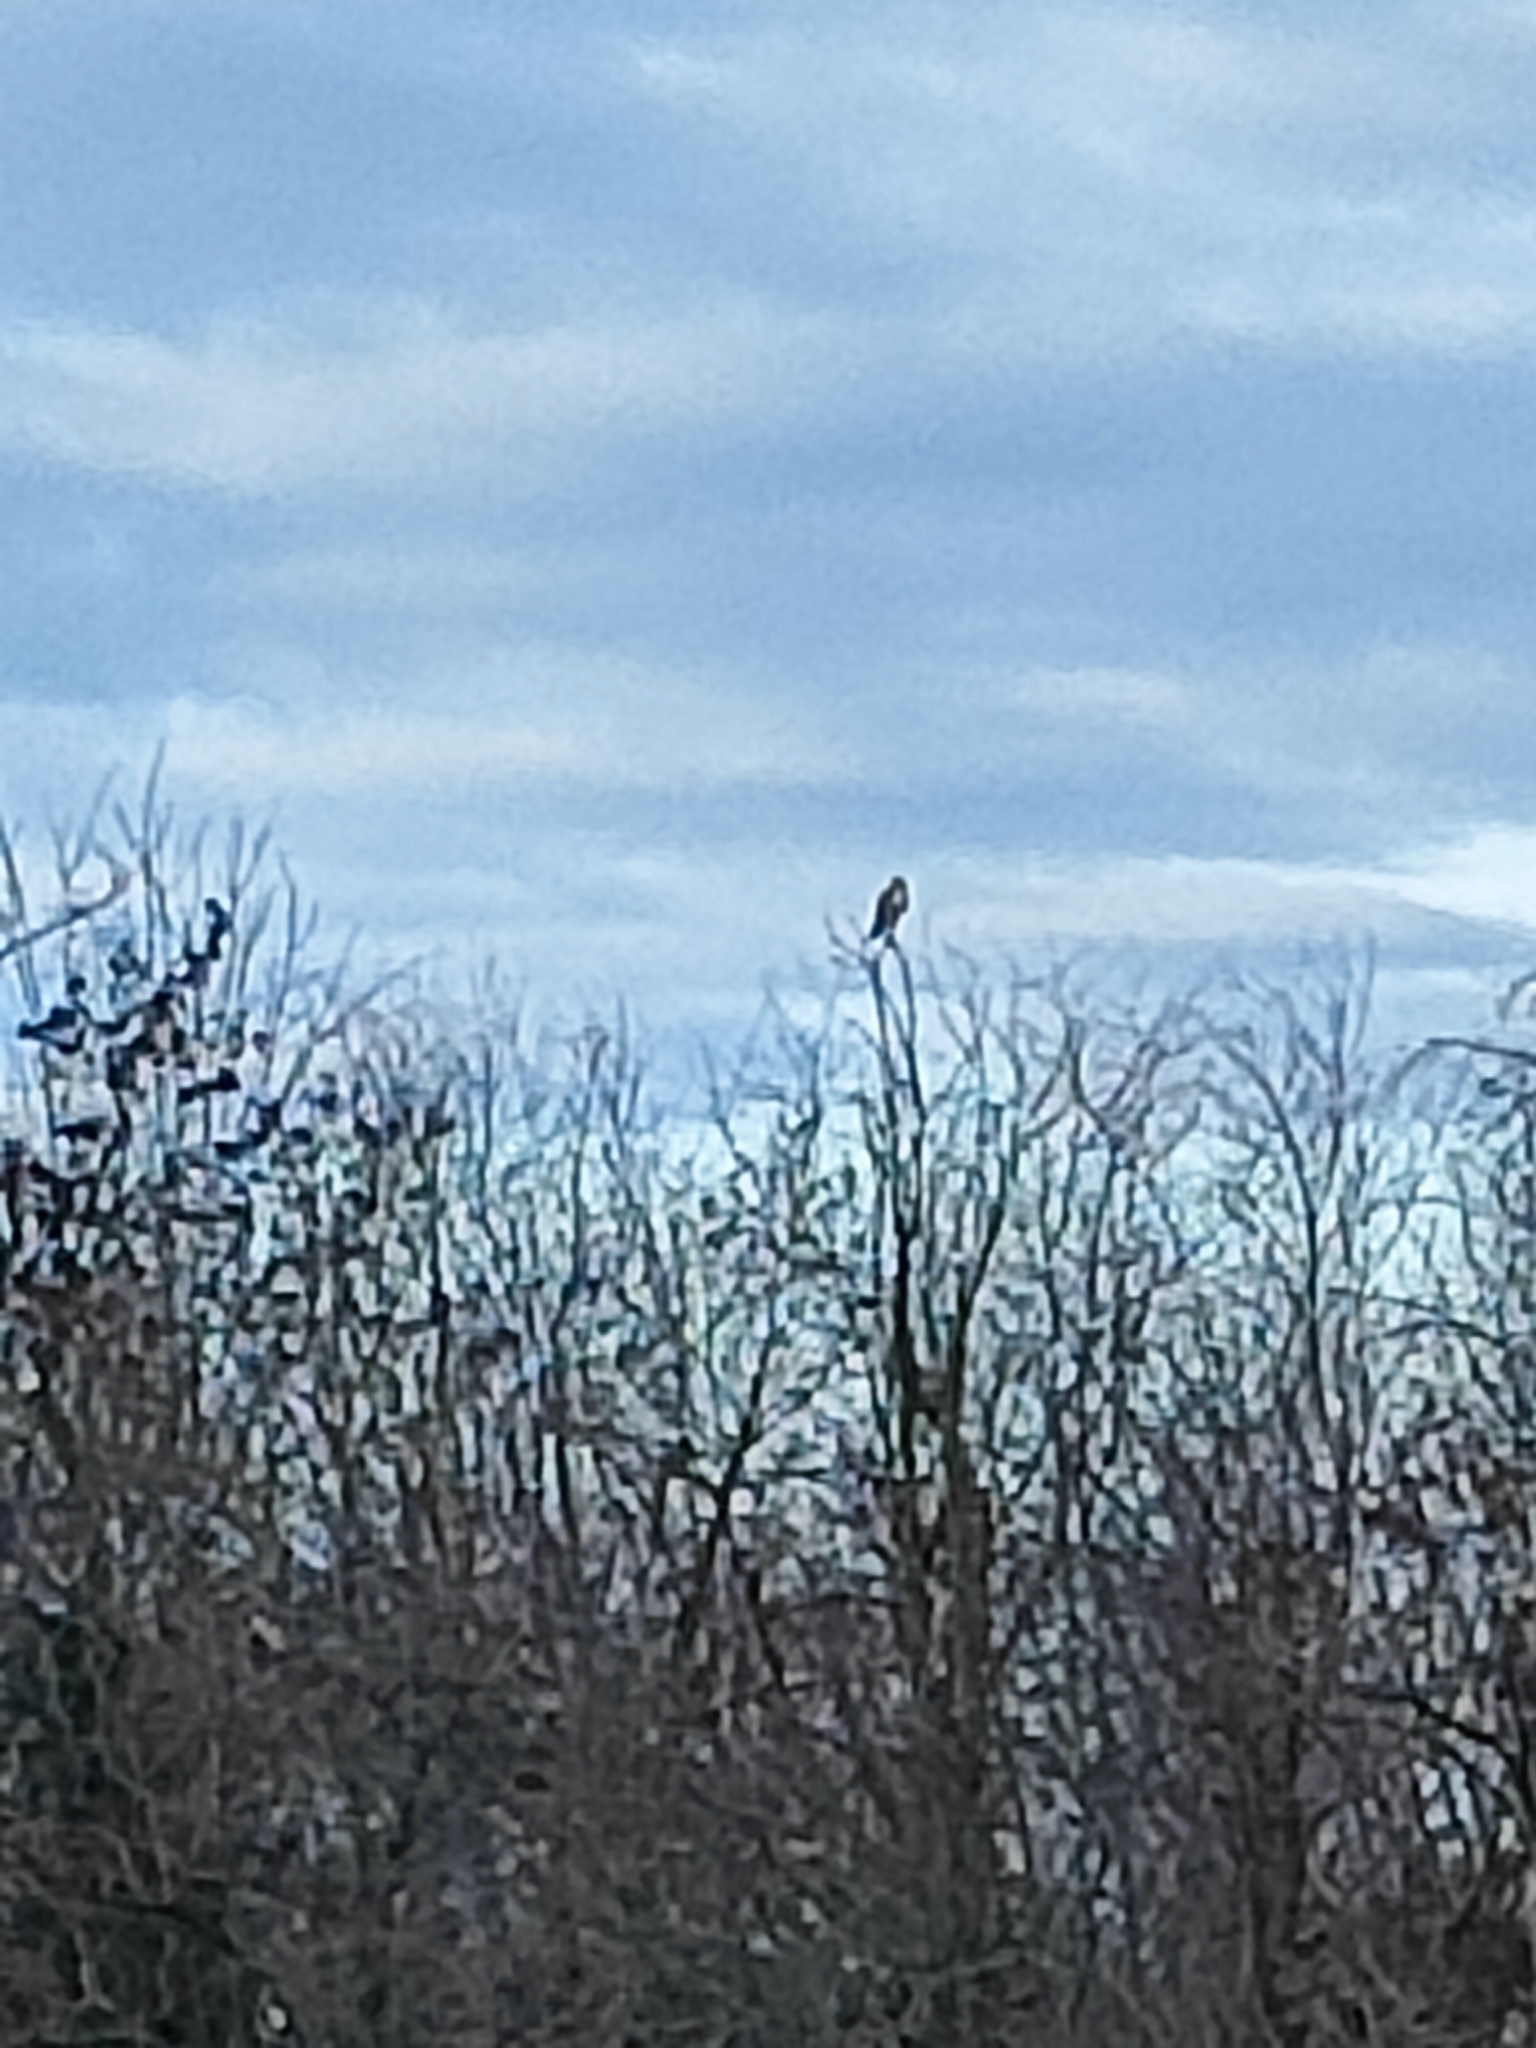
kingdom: Animalia
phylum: Chordata
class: Aves
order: Accipitriformes
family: Accipitridae
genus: Buteo
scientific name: Buteo buteo
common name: Common buzzard
